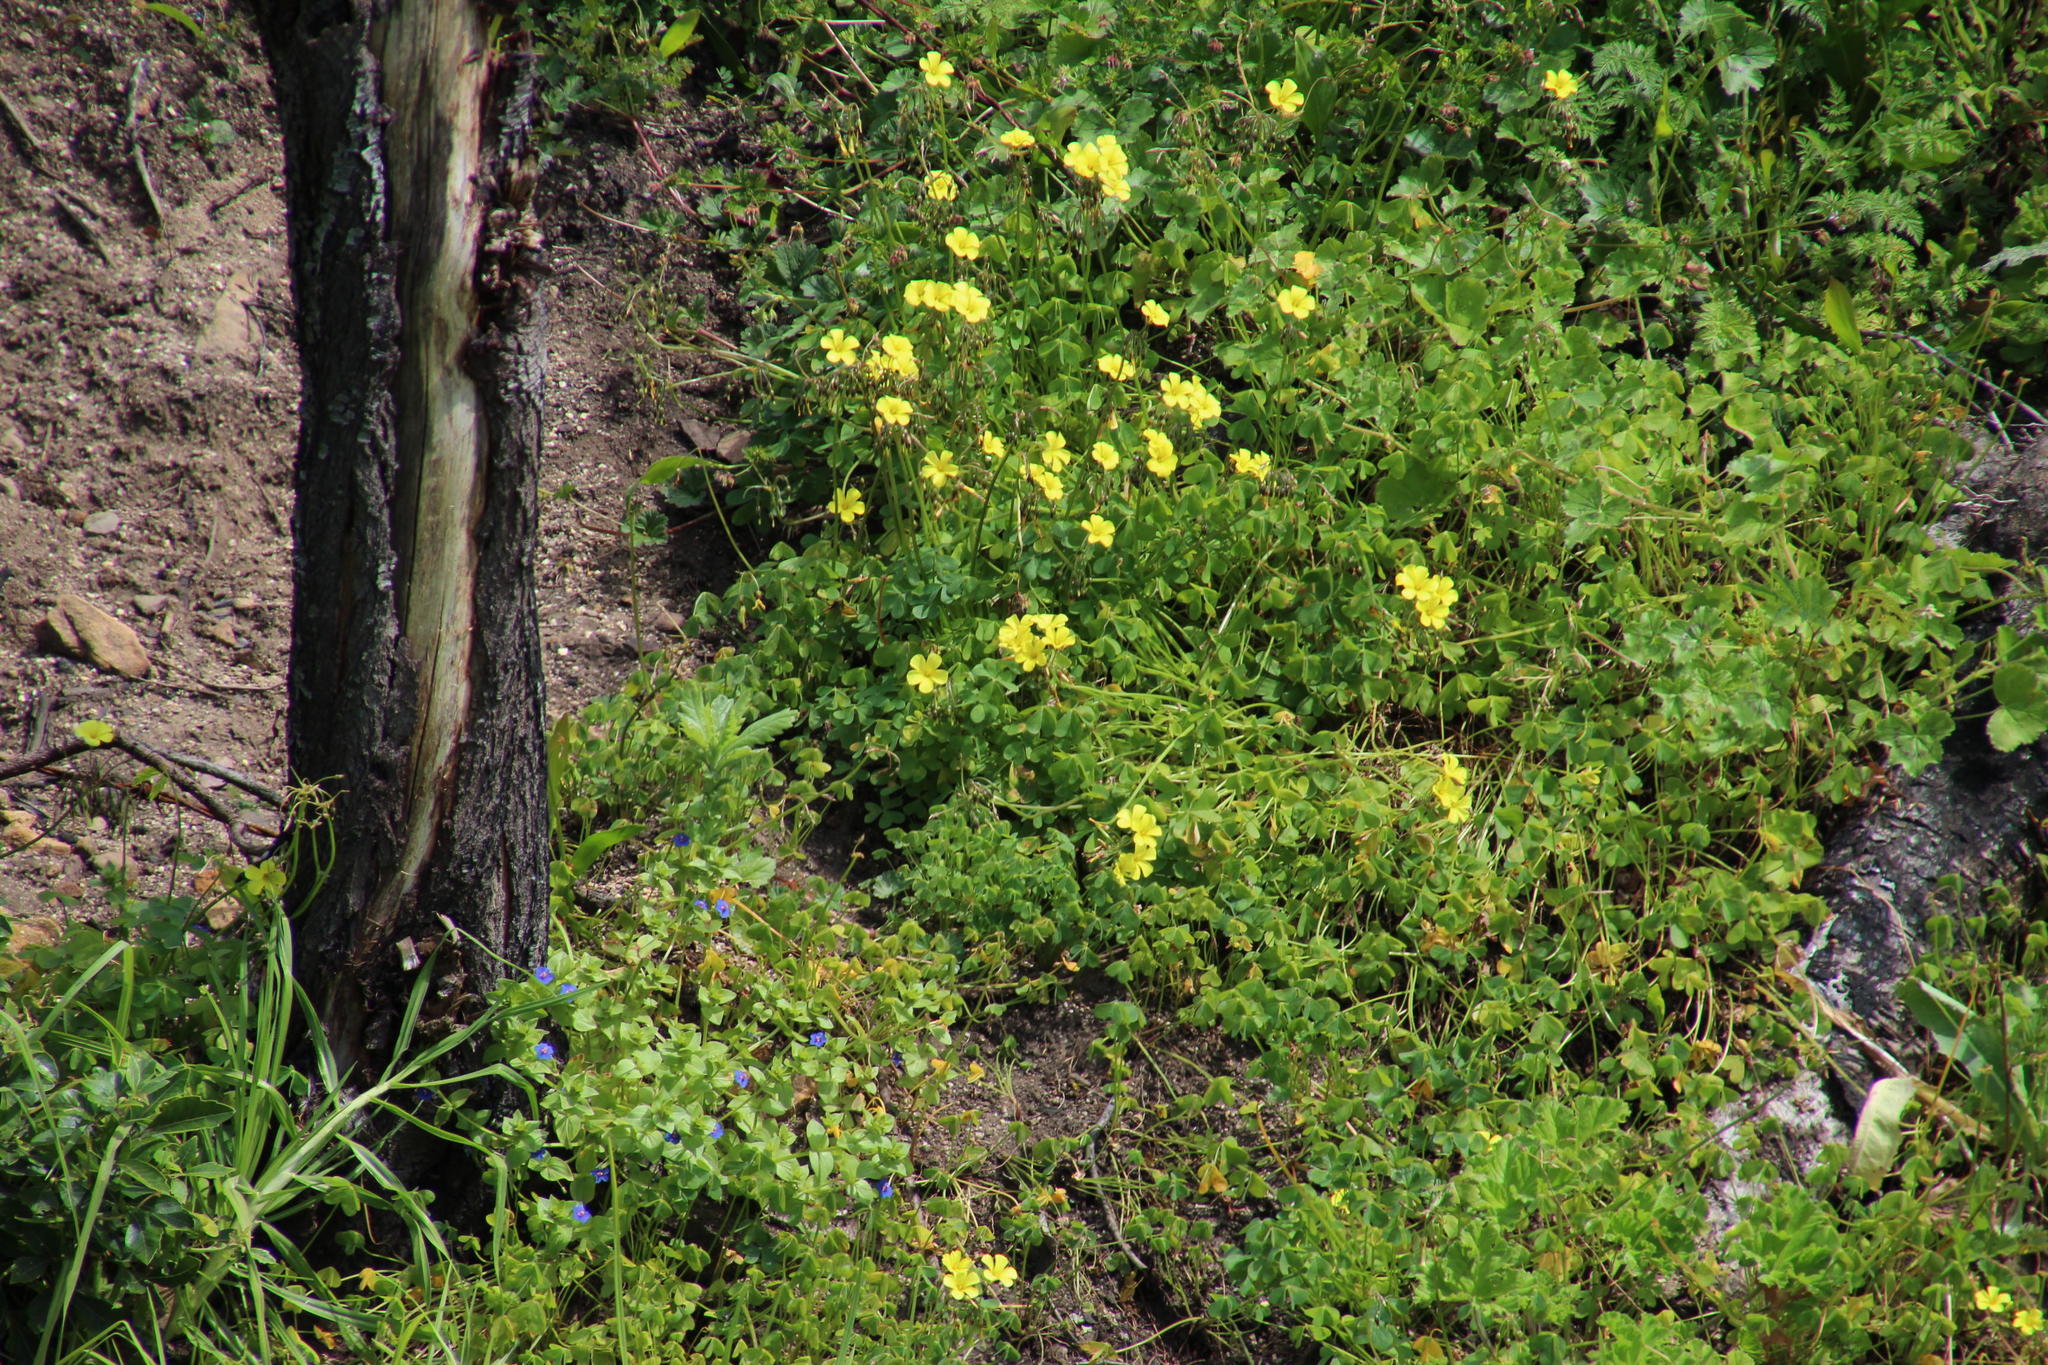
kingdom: Plantae
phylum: Tracheophyta
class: Magnoliopsida
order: Oxalidales
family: Oxalidaceae
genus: Oxalis
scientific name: Oxalis pes-caprae
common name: Bermuda-buttercup
